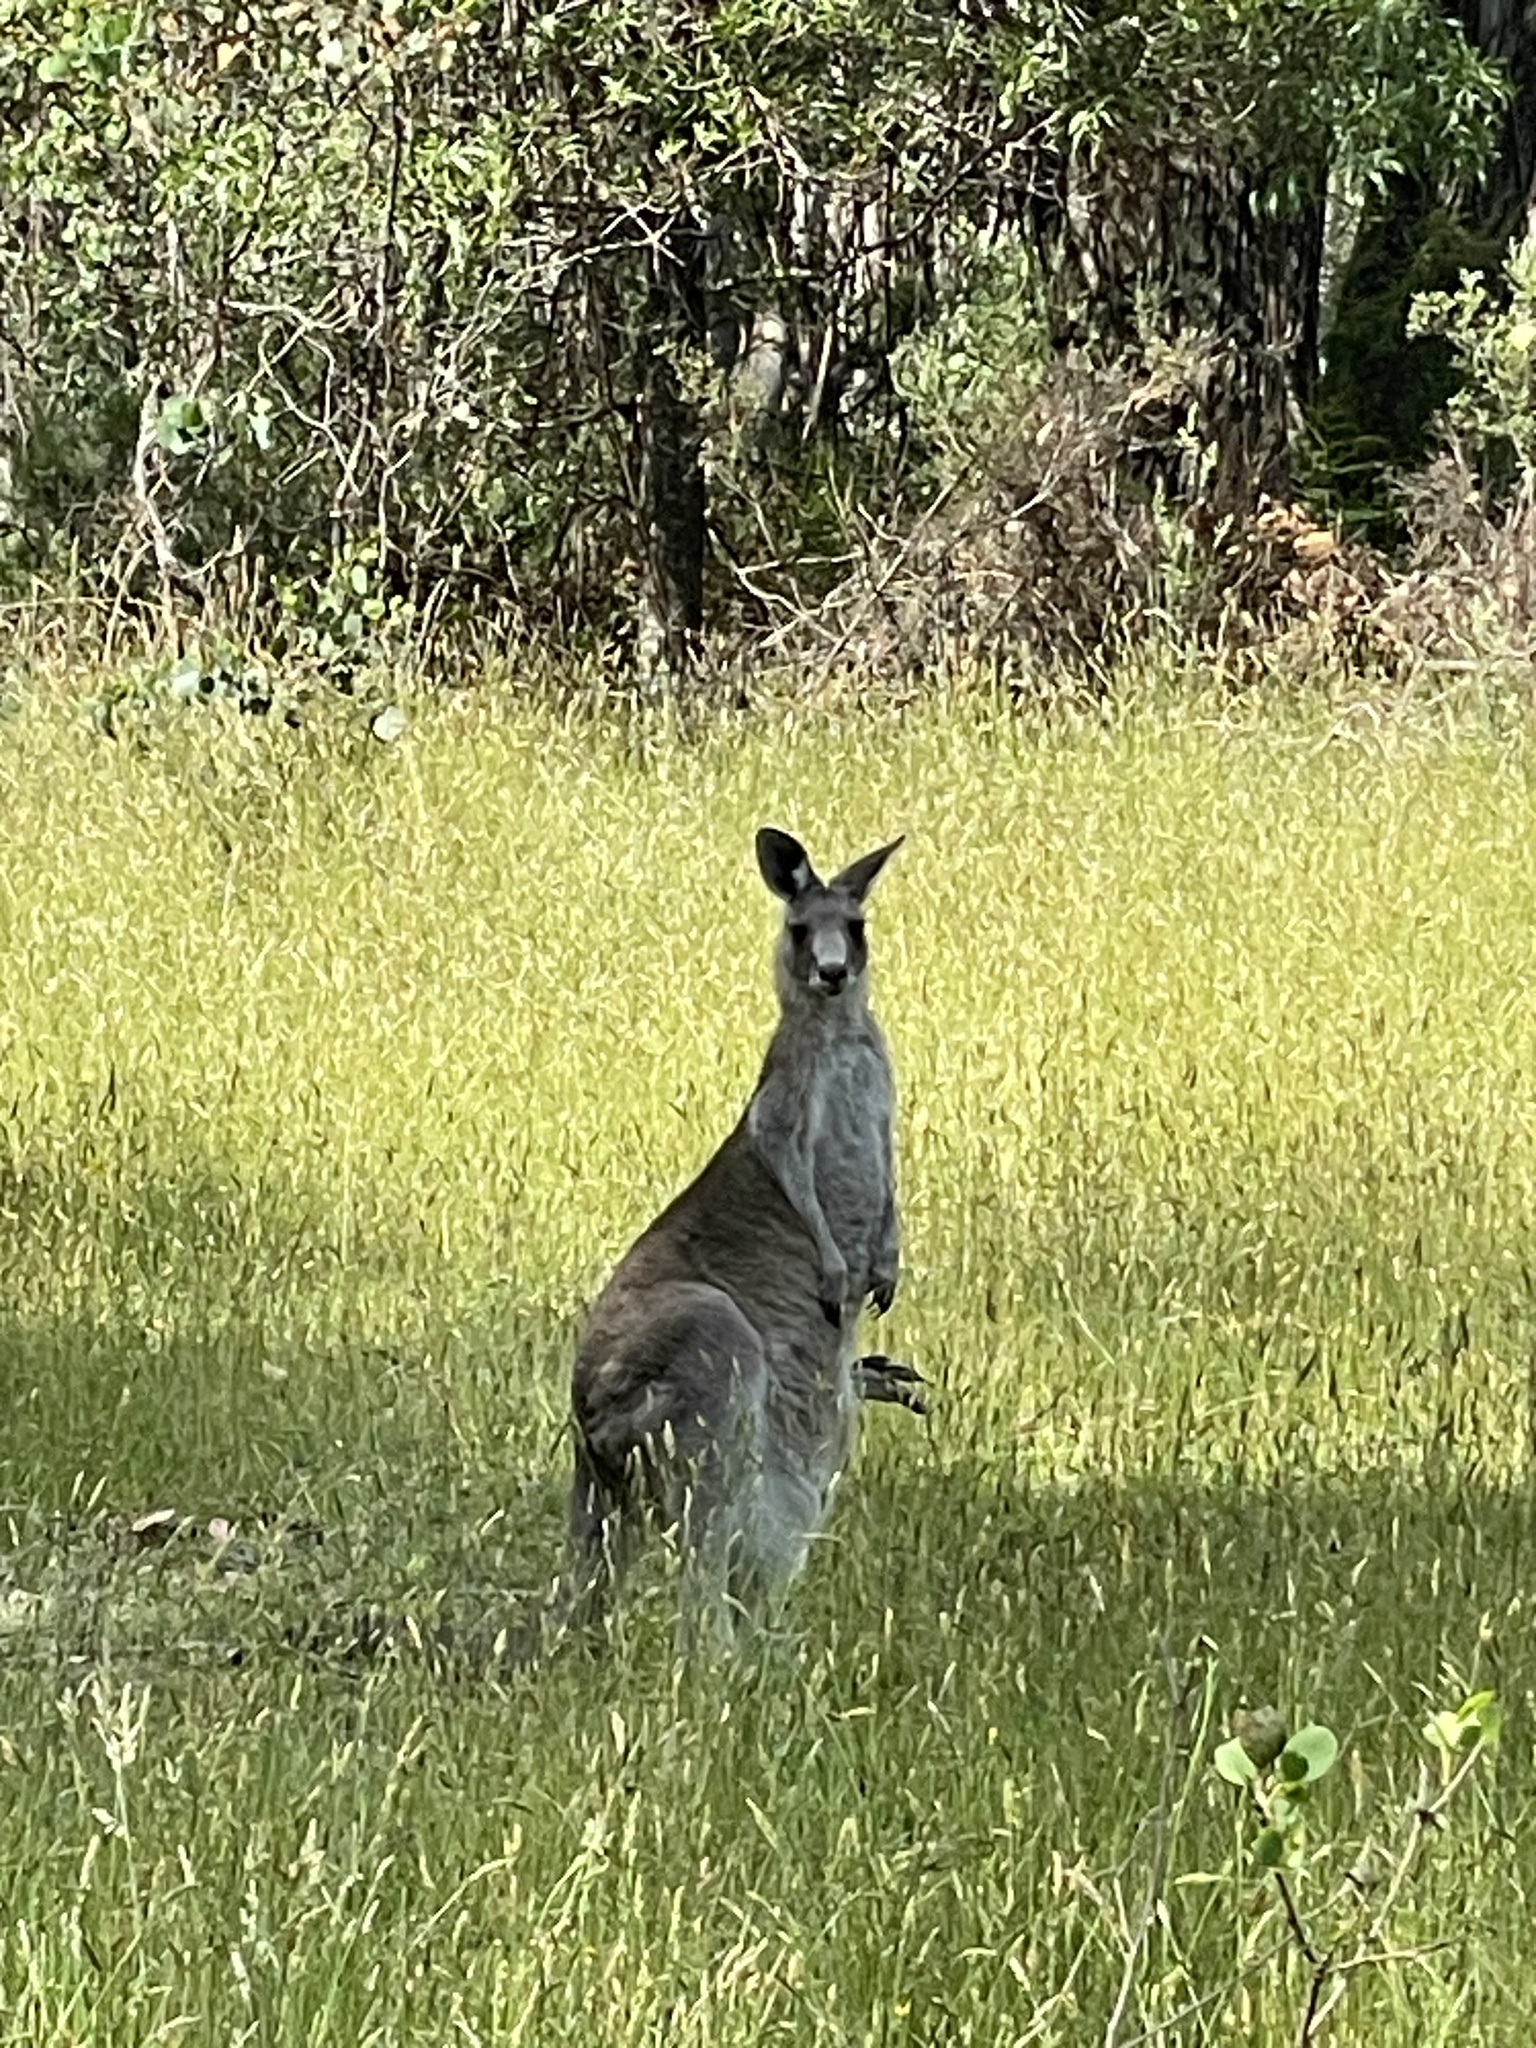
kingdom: Animalia
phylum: Chordata
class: Mammalia
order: Diprotodontia
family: Macropodidae
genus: Macropus
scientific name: Macropus giganteus
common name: Eastern grey kangaroo
